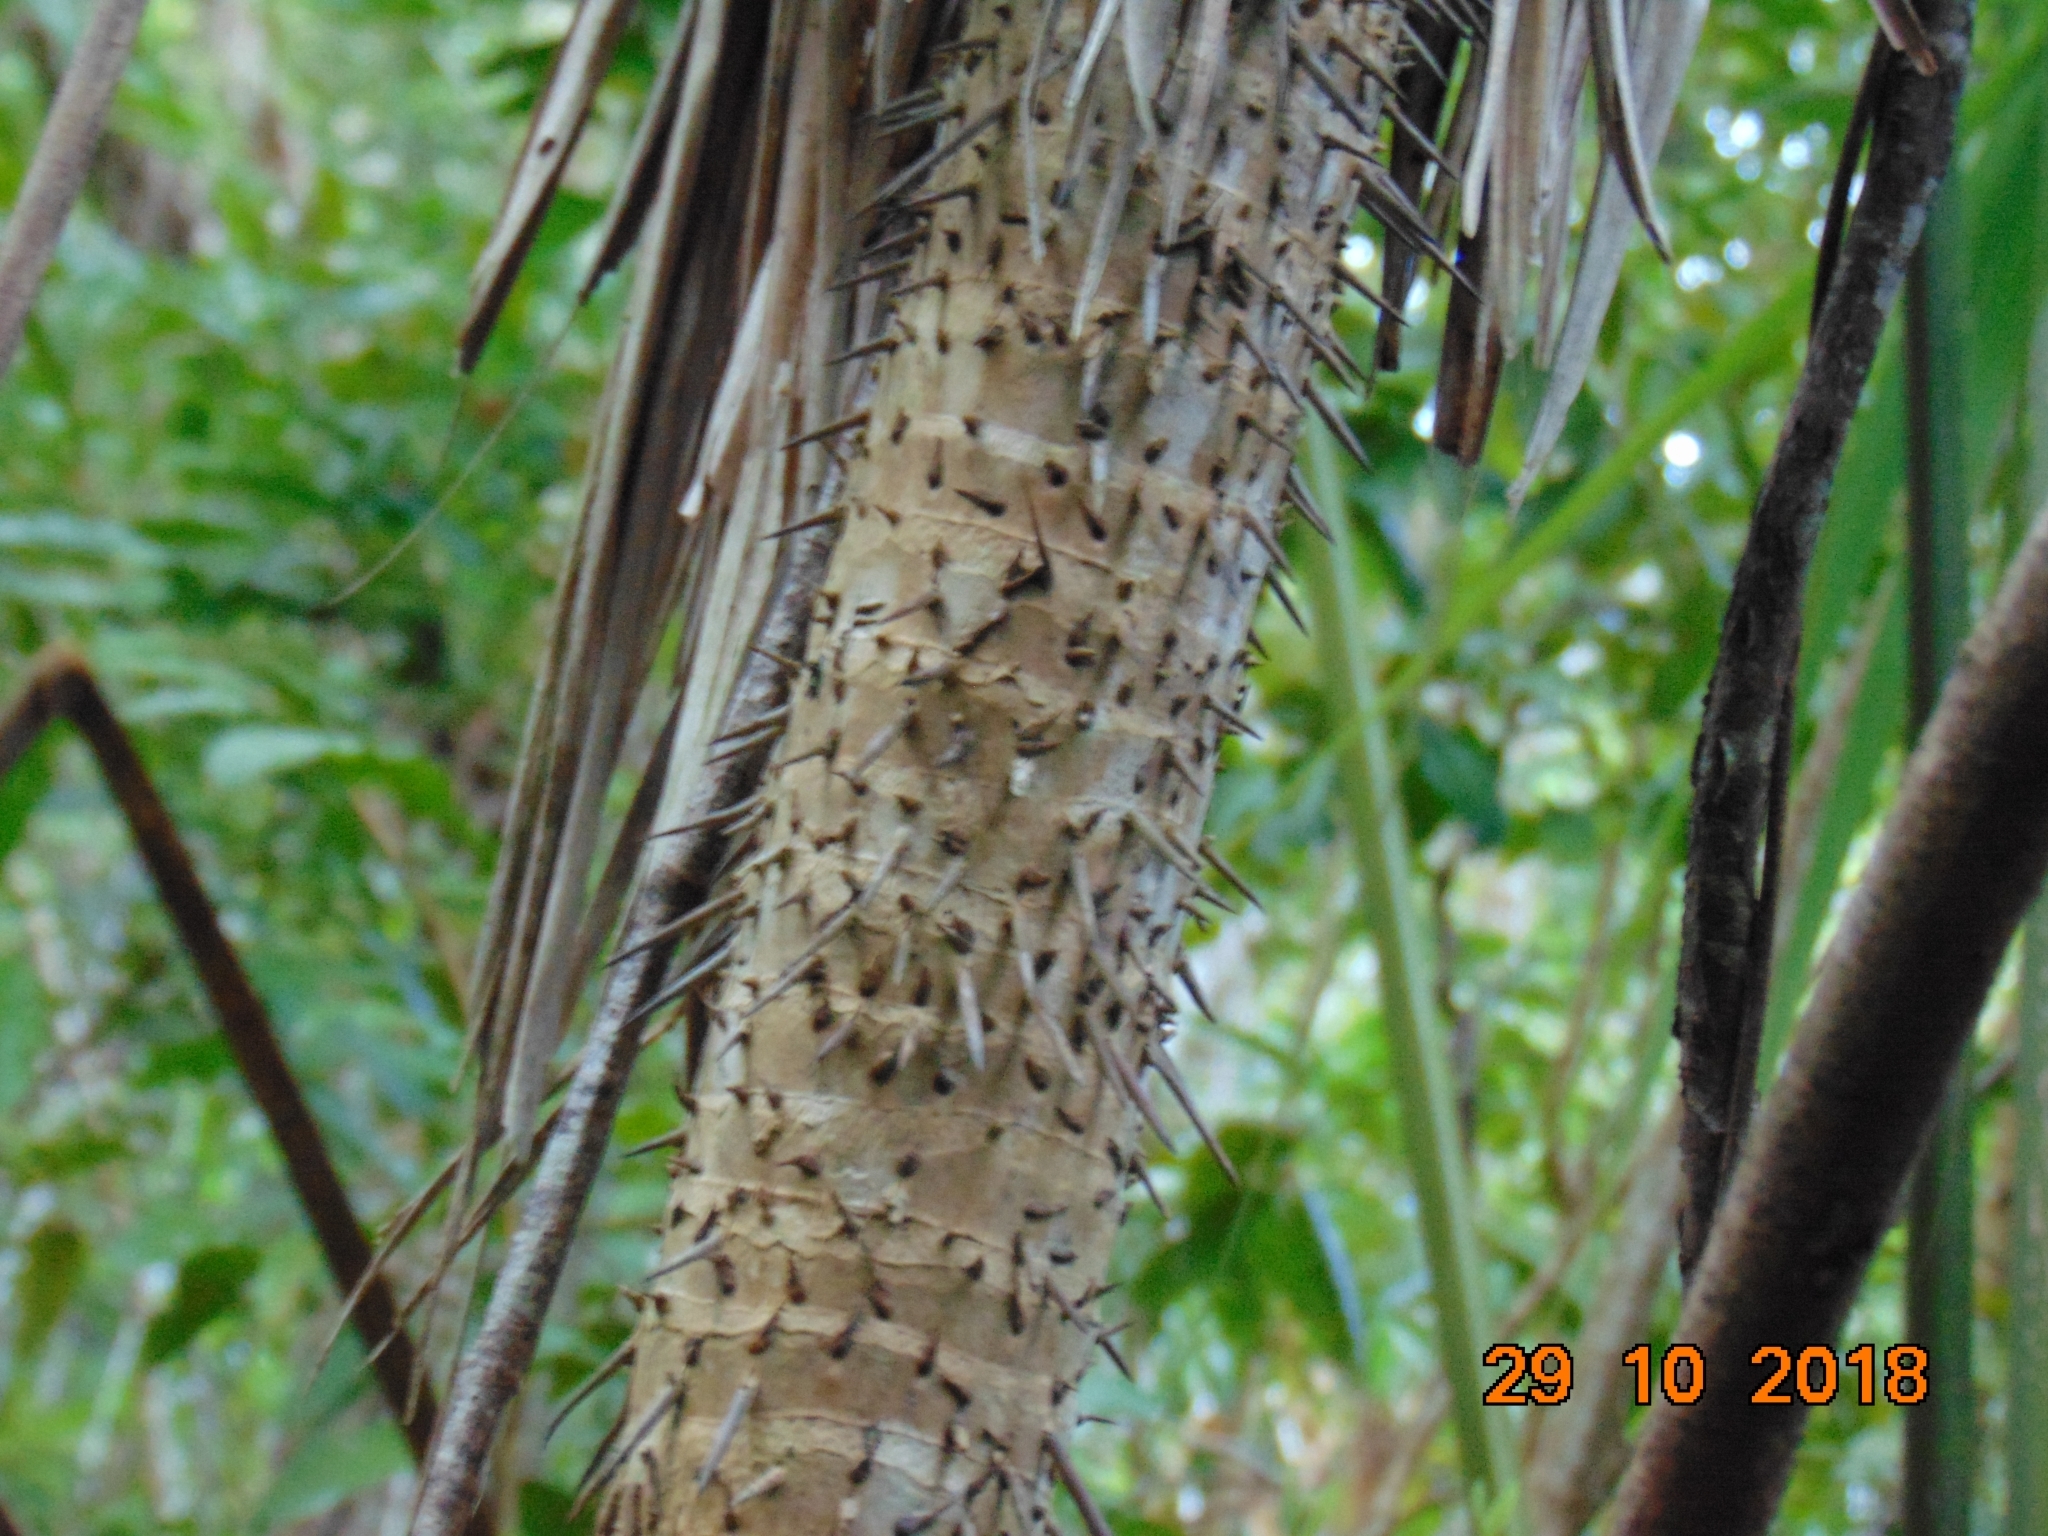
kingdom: Plantae
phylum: Tracheophyta
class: Liliopsida
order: Arecales
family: Arecaceae
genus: Cryosophila
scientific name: Cryosophila stauracantha
